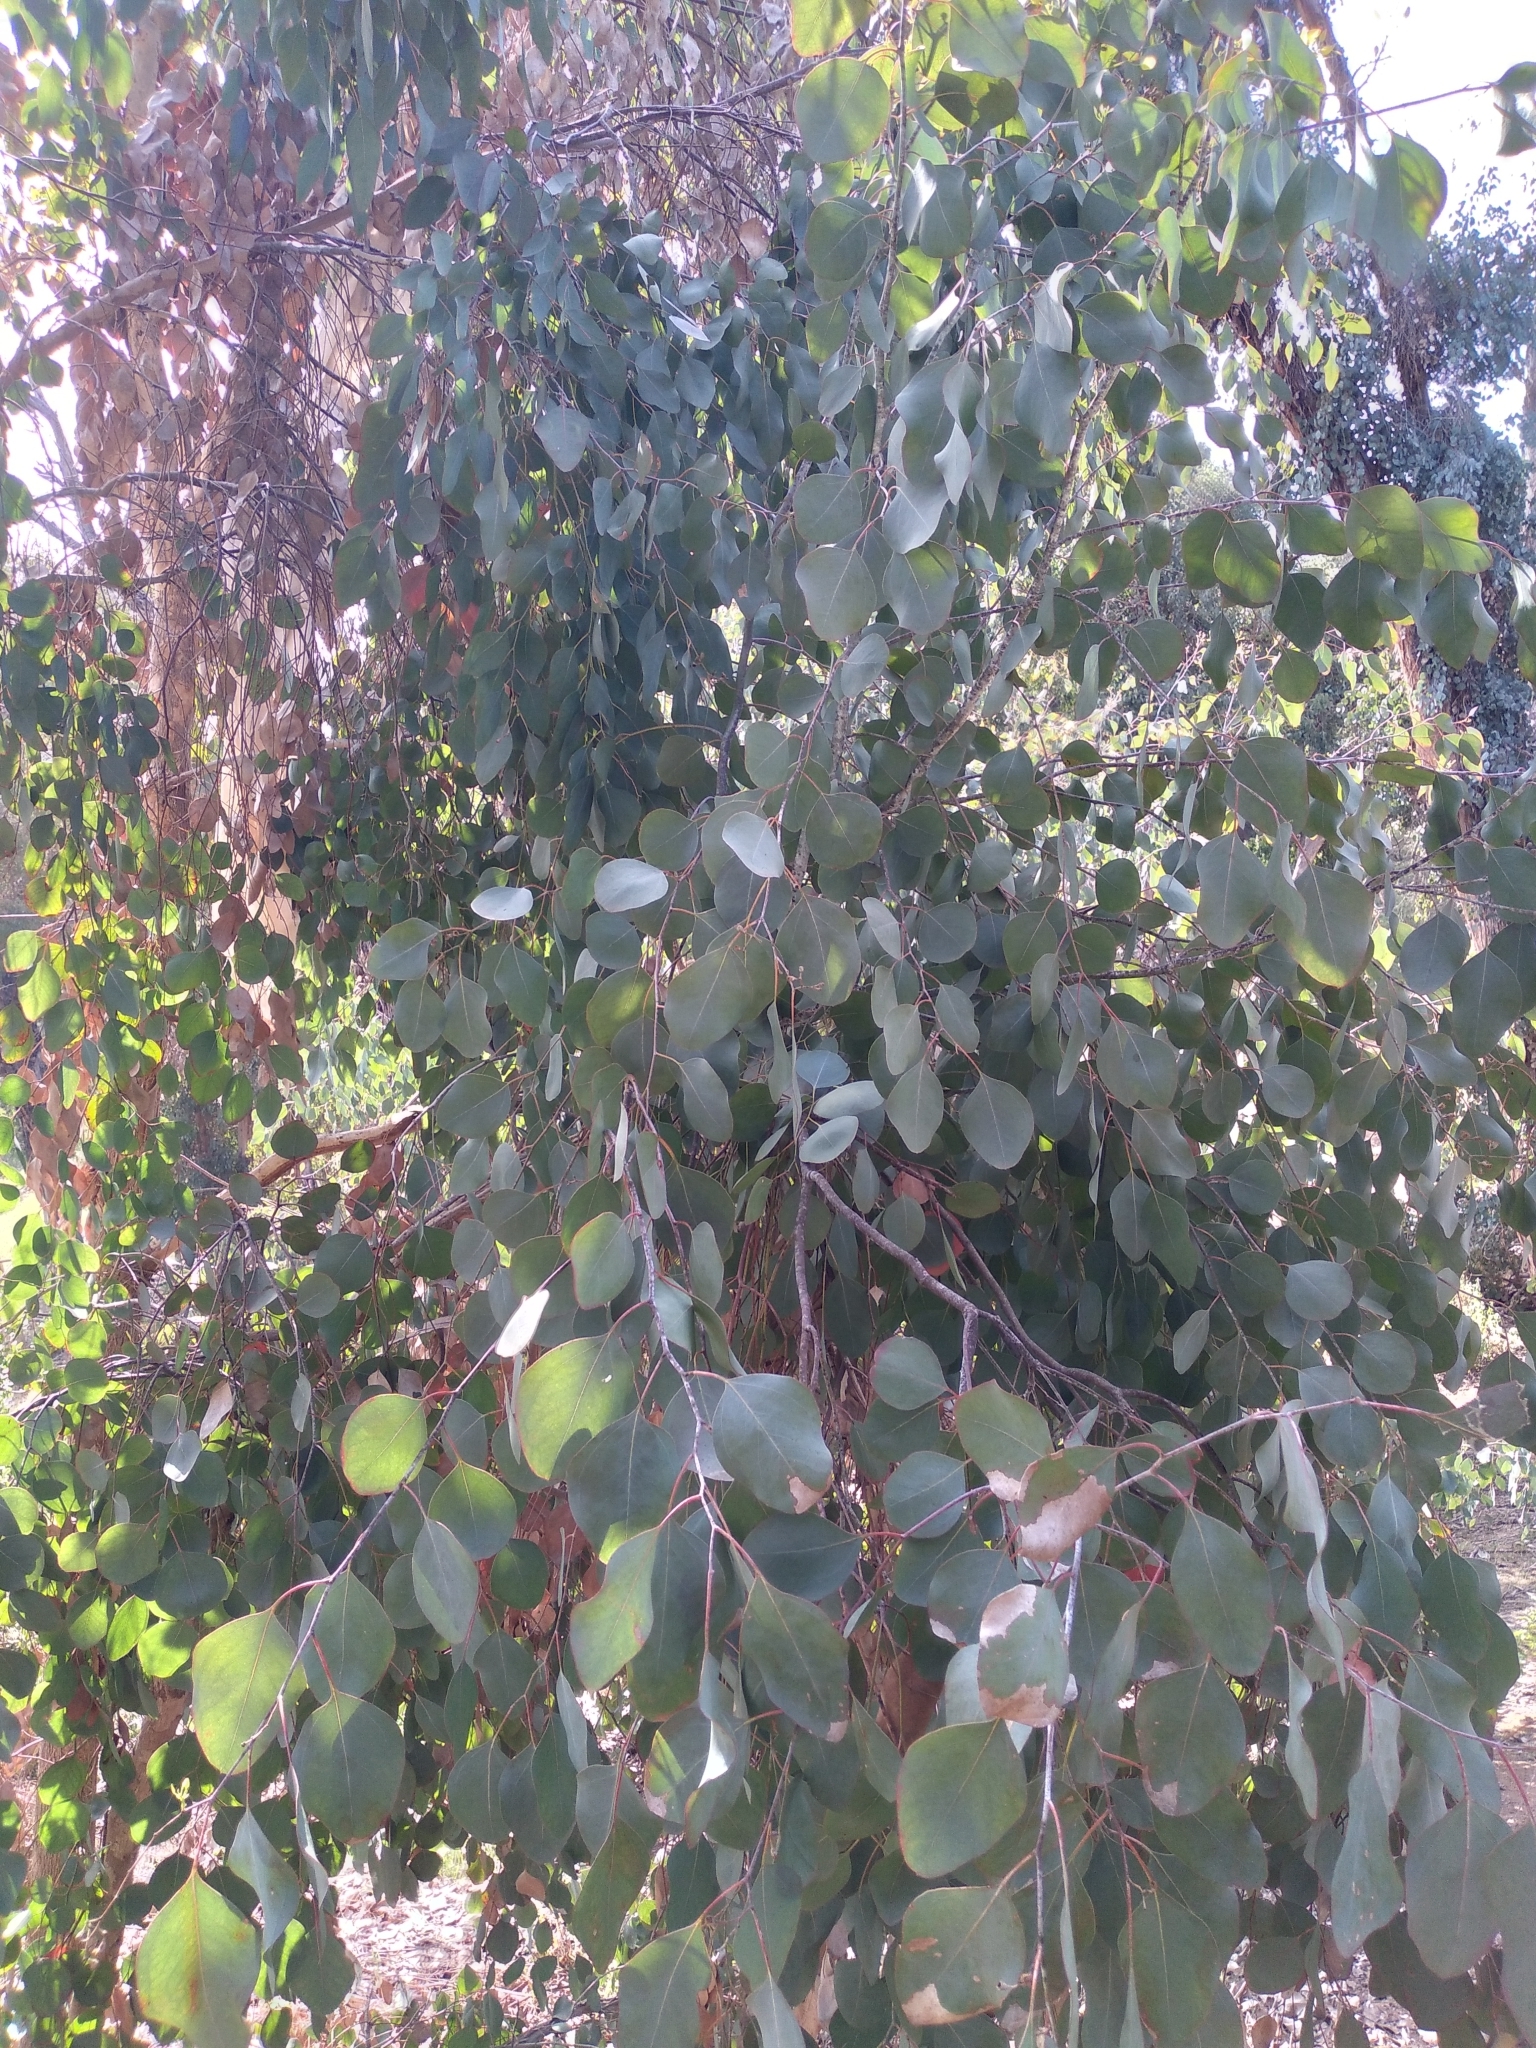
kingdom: Plantae
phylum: Tracheophyta
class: Magnoliopsida
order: Myrtales
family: Myrtaceae
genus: Eucalyptus
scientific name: Eucalyptus polyanthemos
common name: Red-box
